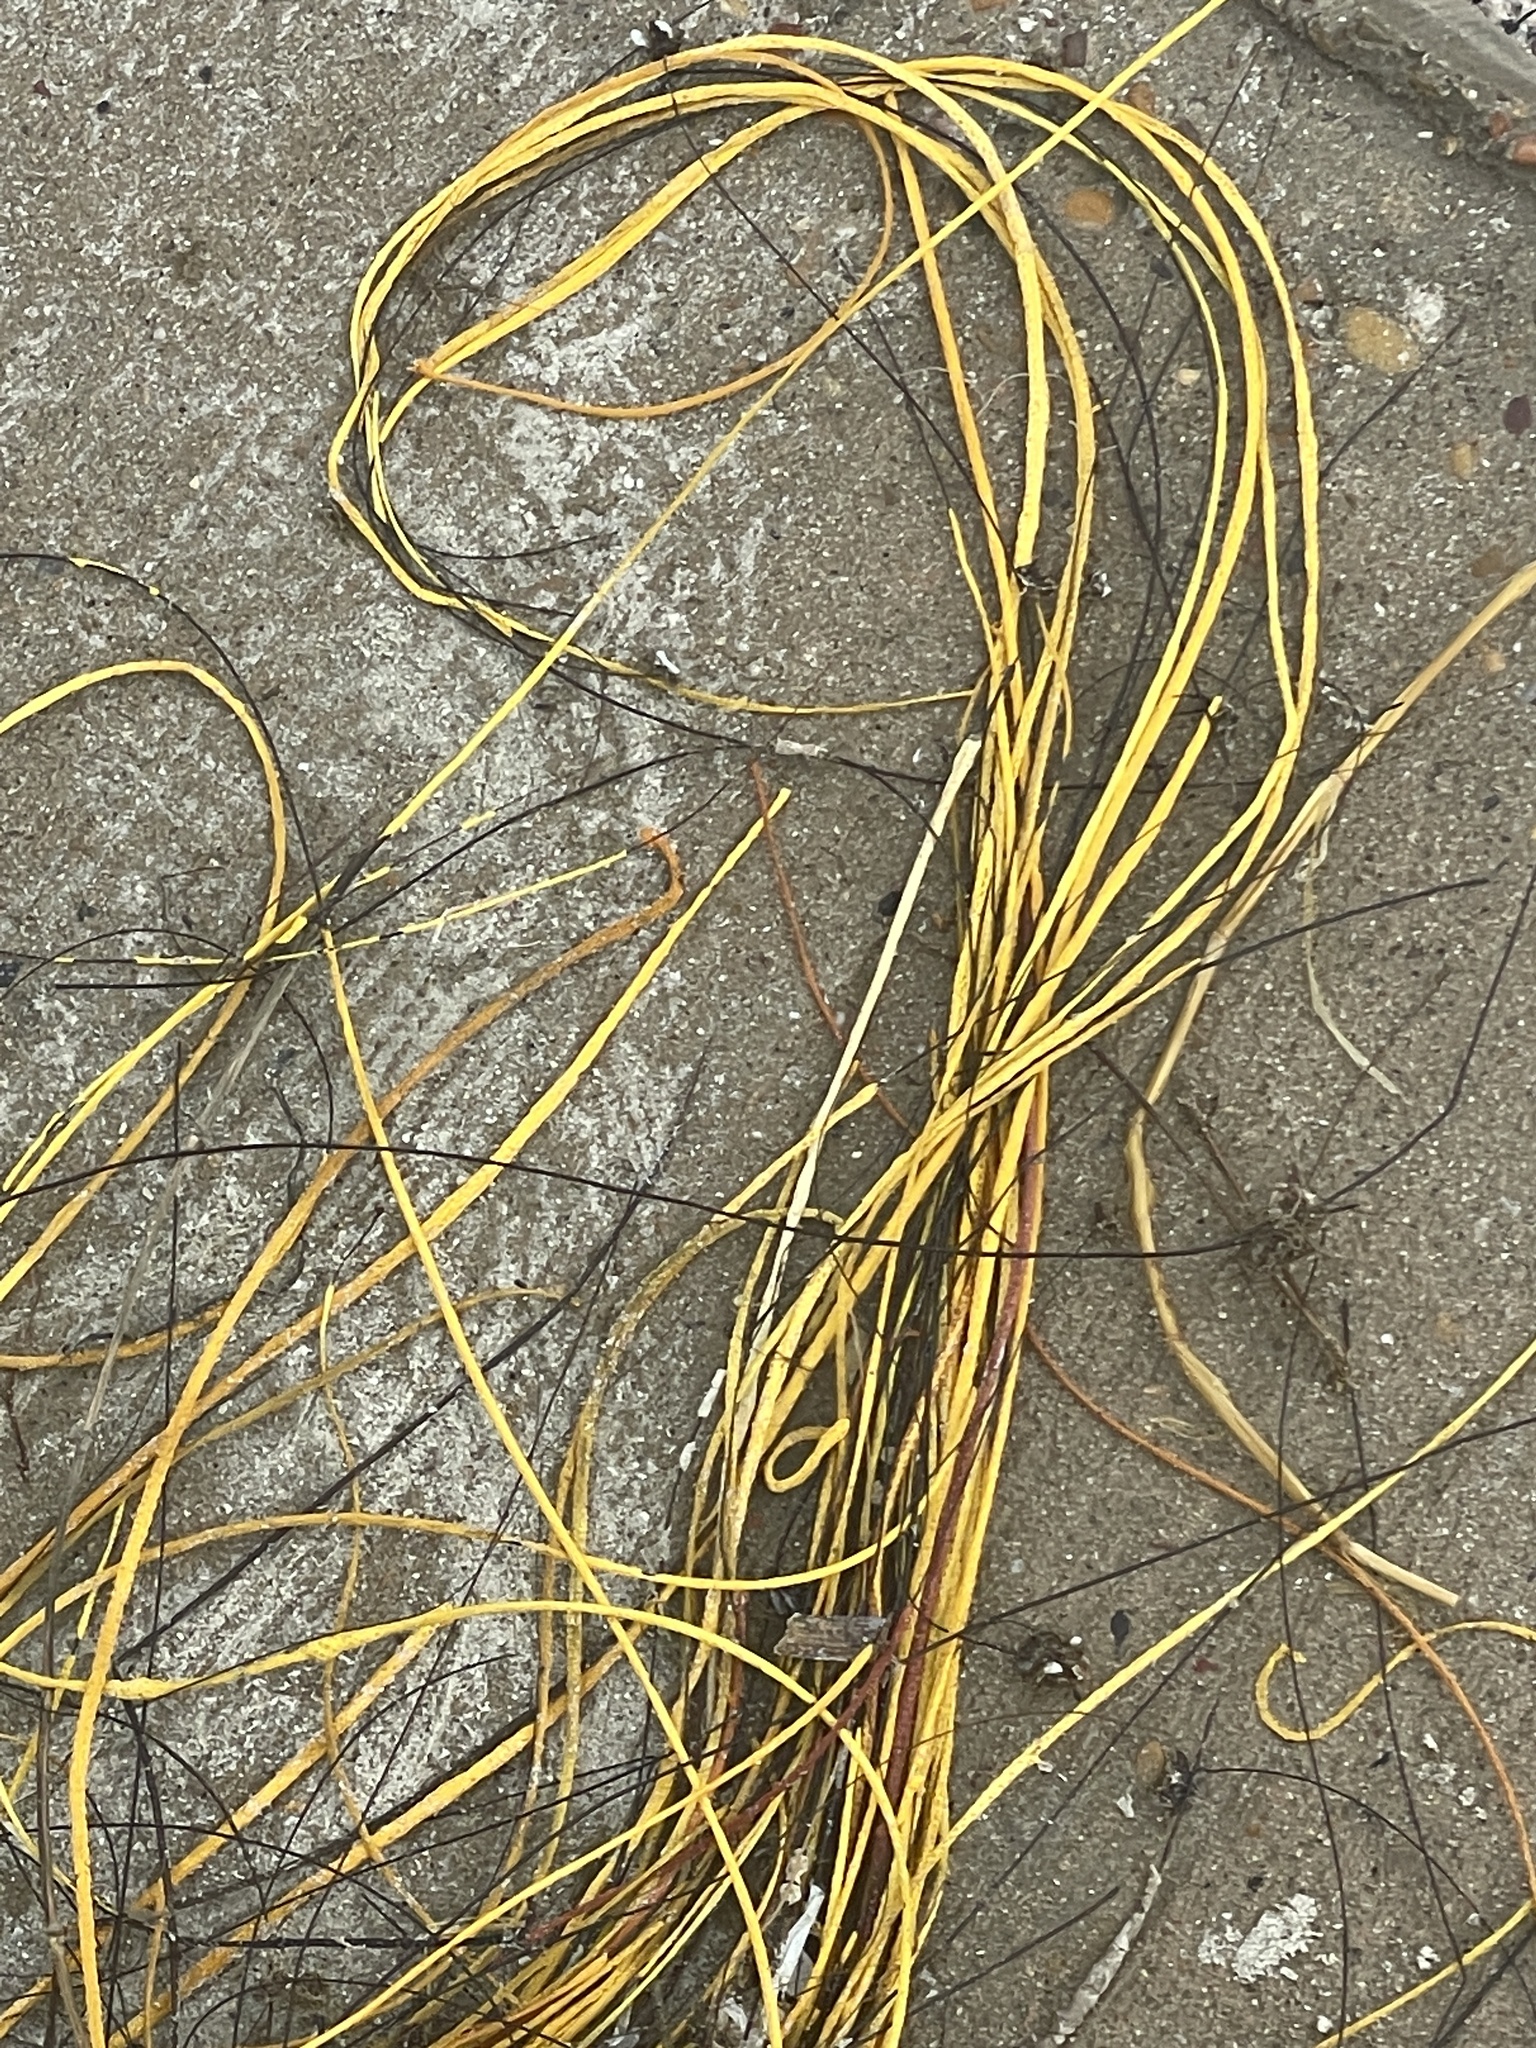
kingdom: Animalia
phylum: Cnidaria
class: Anthozoa
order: Malacalcyonacea
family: Gorgoniidae
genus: Leptogorgia
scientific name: Leptogorgia setacea
